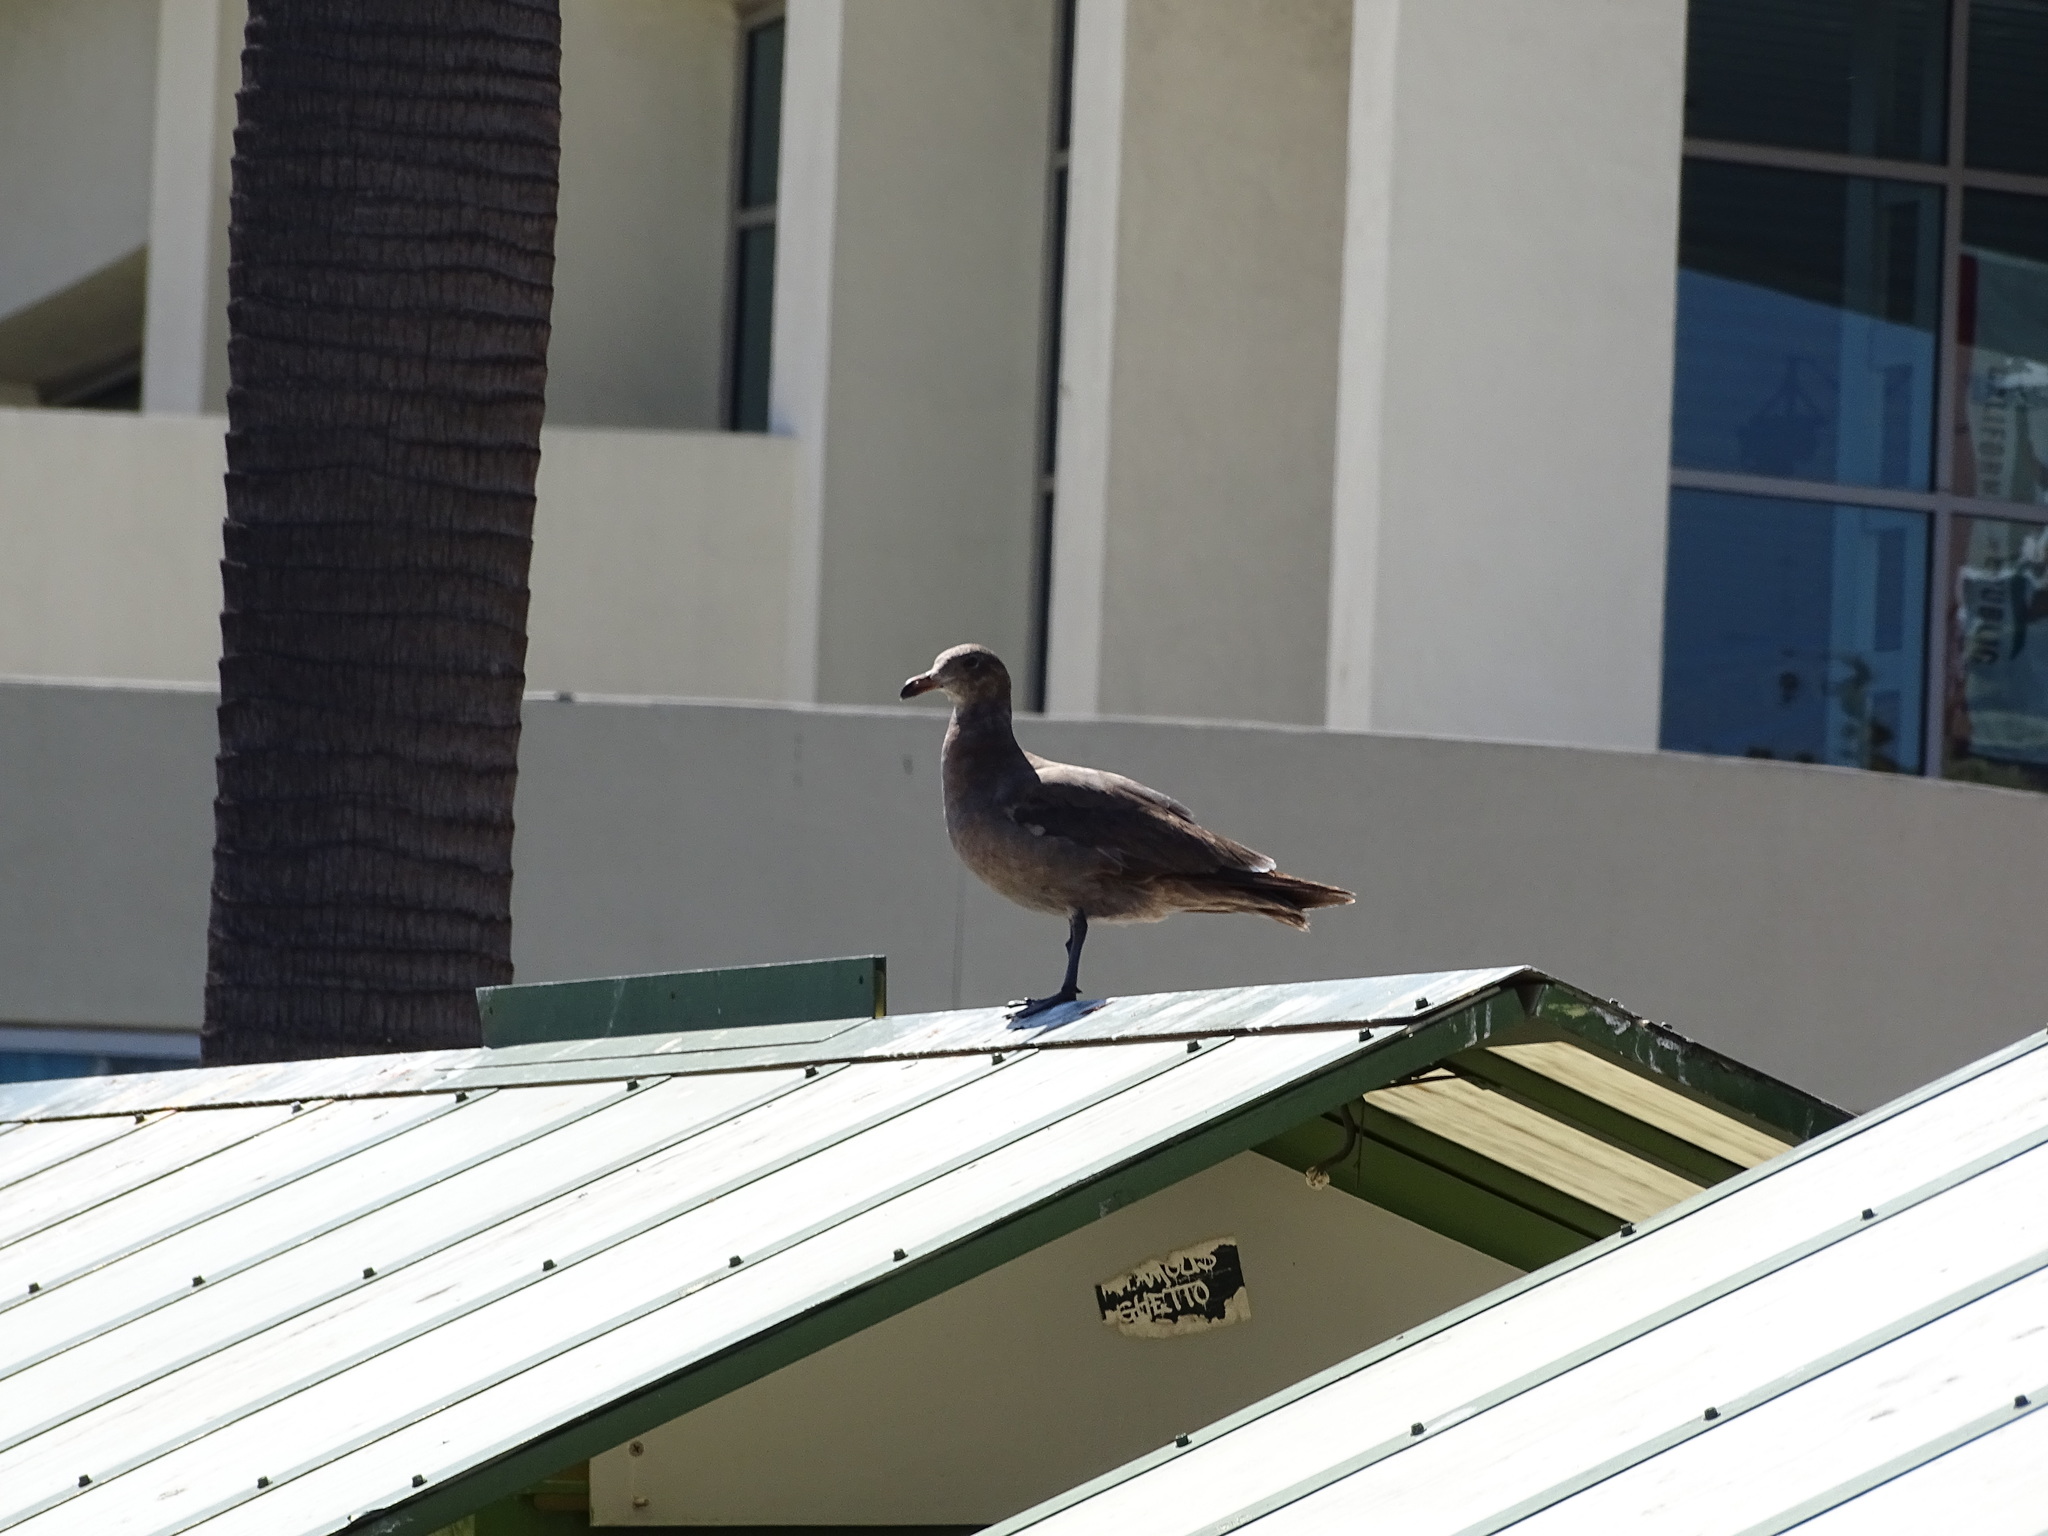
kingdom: Animalia
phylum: Chordata
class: Aves
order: Charadriiformes
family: Laridae
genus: Larus
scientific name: Larus heermanni
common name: Heermann's gull
